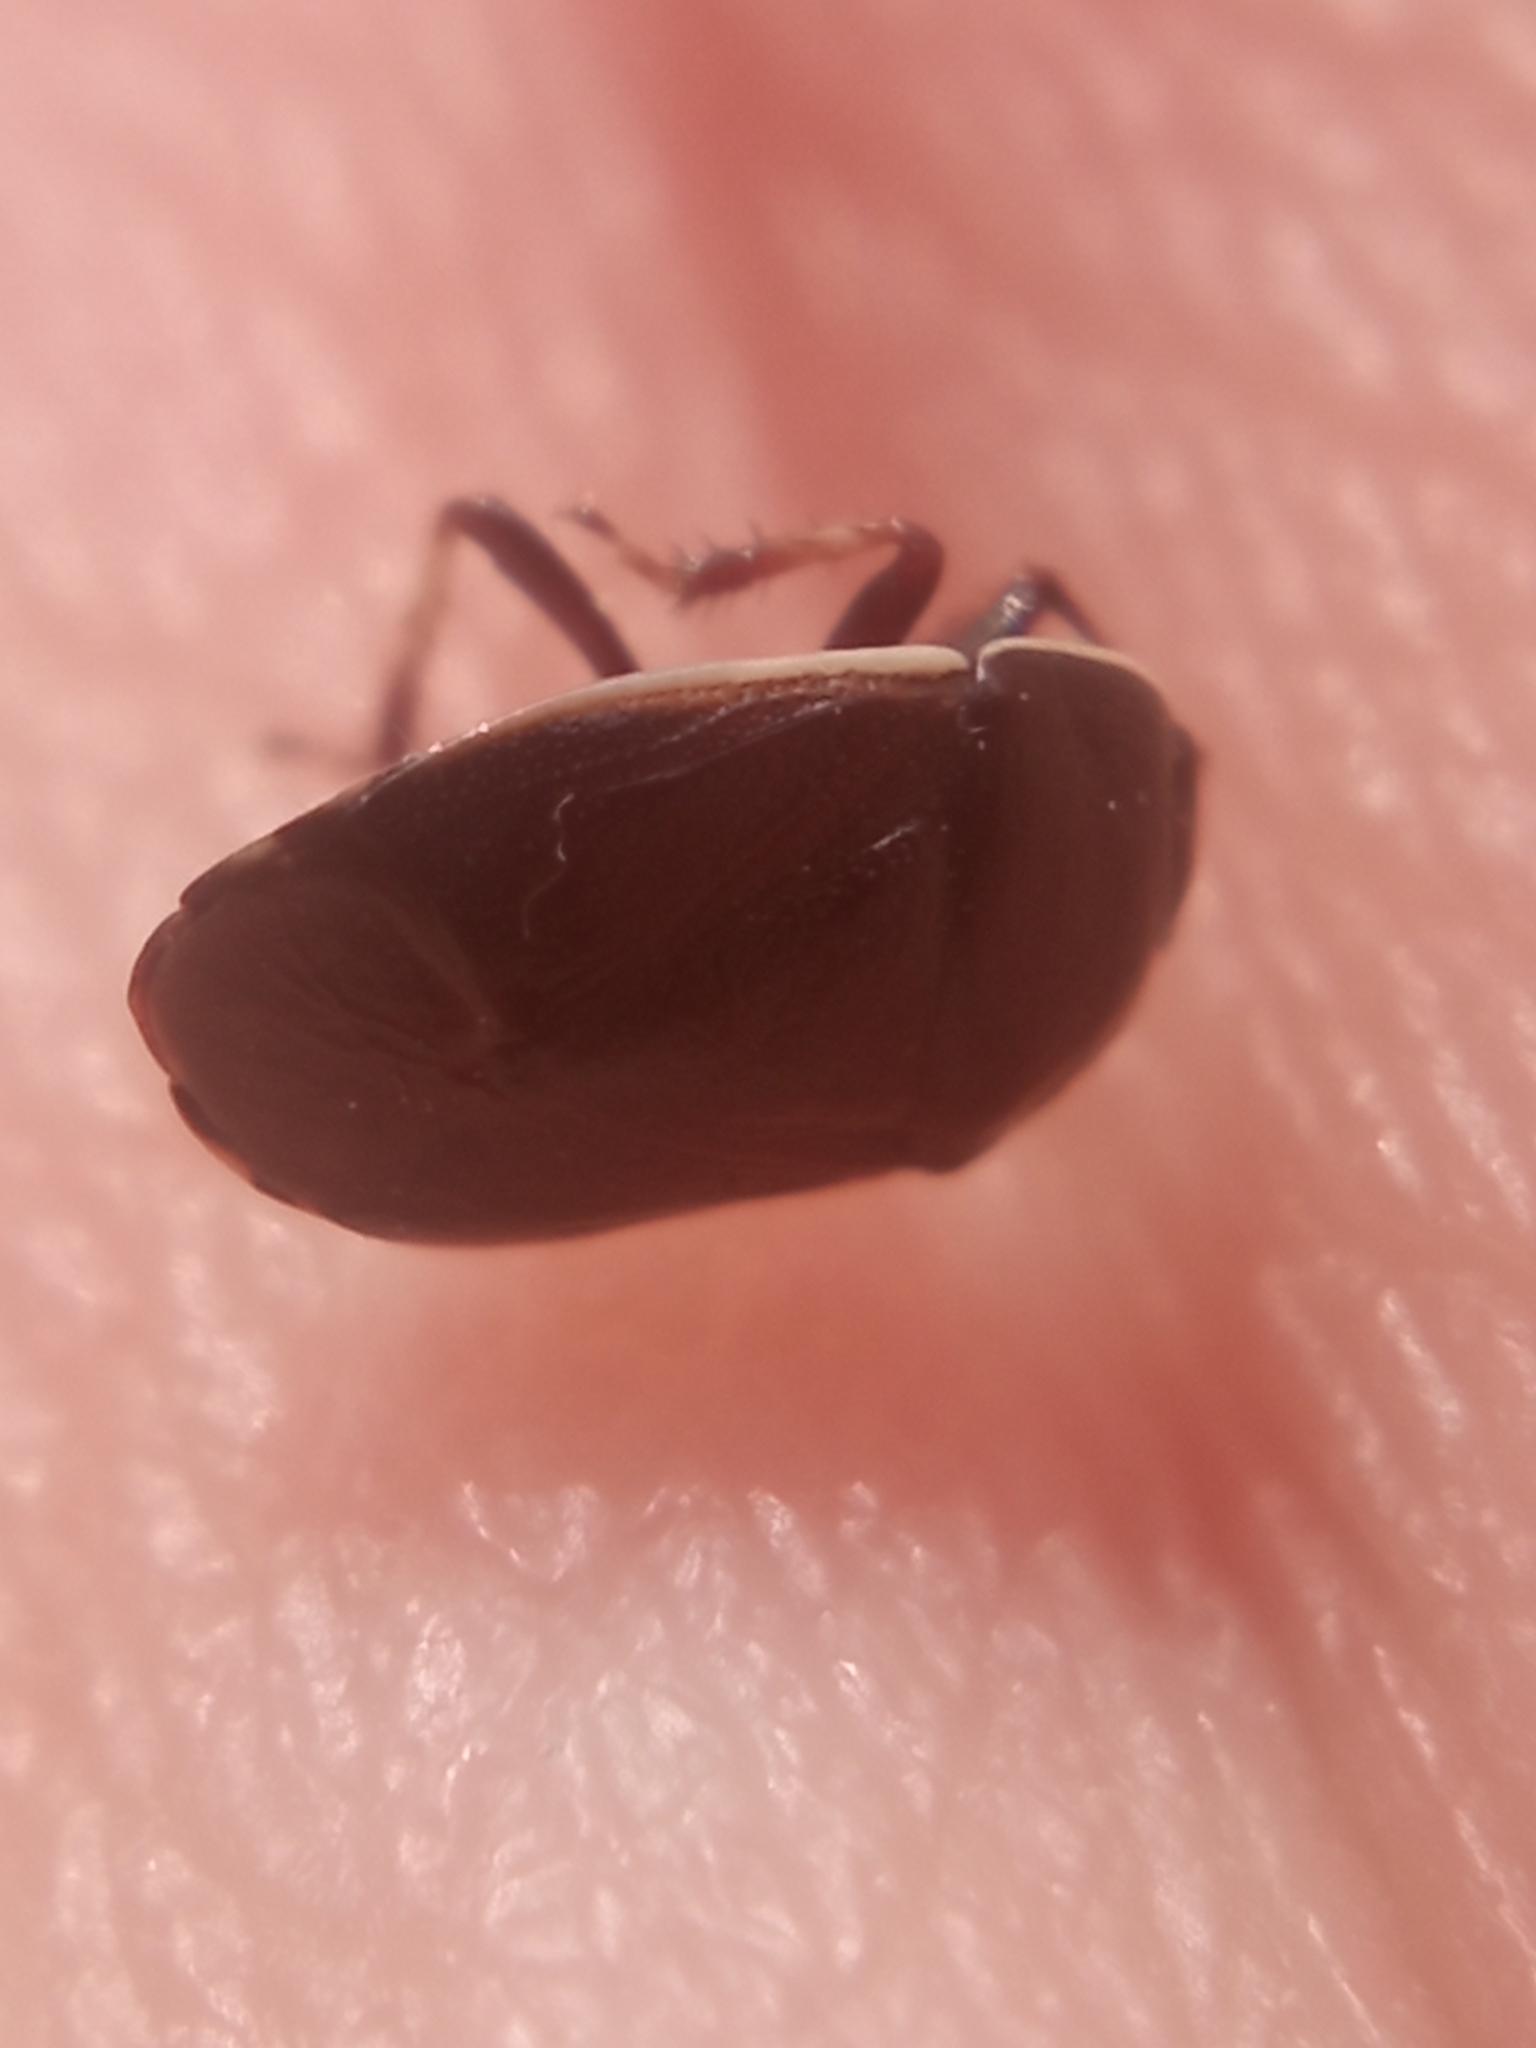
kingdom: Animalia
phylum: Arthropoda
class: Insecta
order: Hemiptera
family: Cydnidae
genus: Adomerus
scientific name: Adomerus fuscipennis
